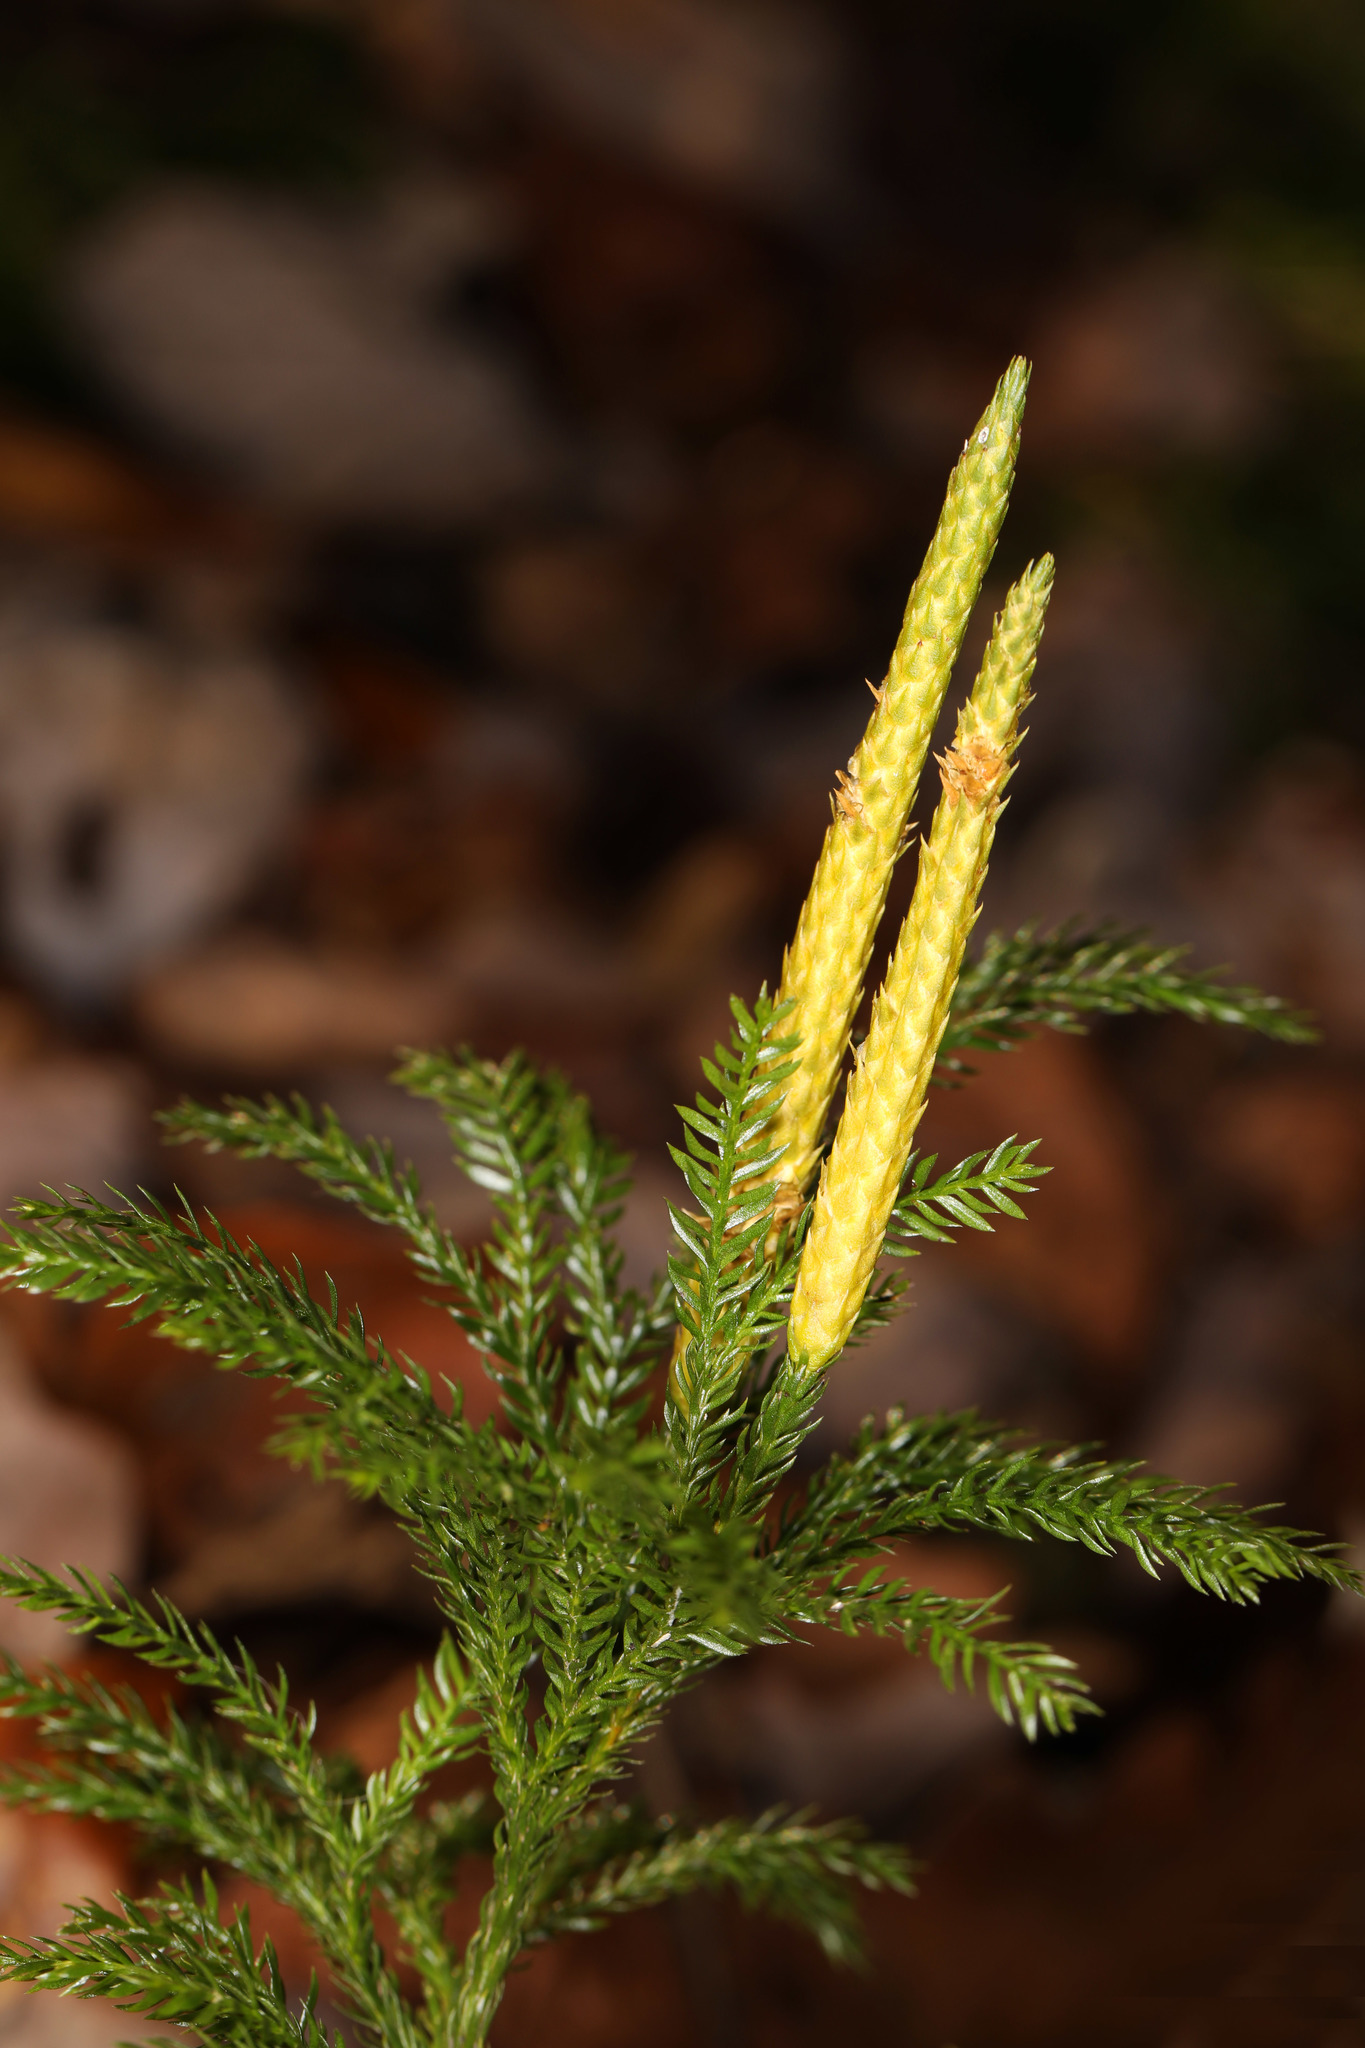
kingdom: Plantae
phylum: Tracheophyta
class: Lycopodiopsida
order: Lycopodiales
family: Lycopodiaceae
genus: Dendrolycopodium
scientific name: Dendrolycopodium obscurum
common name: Common ground-pine
